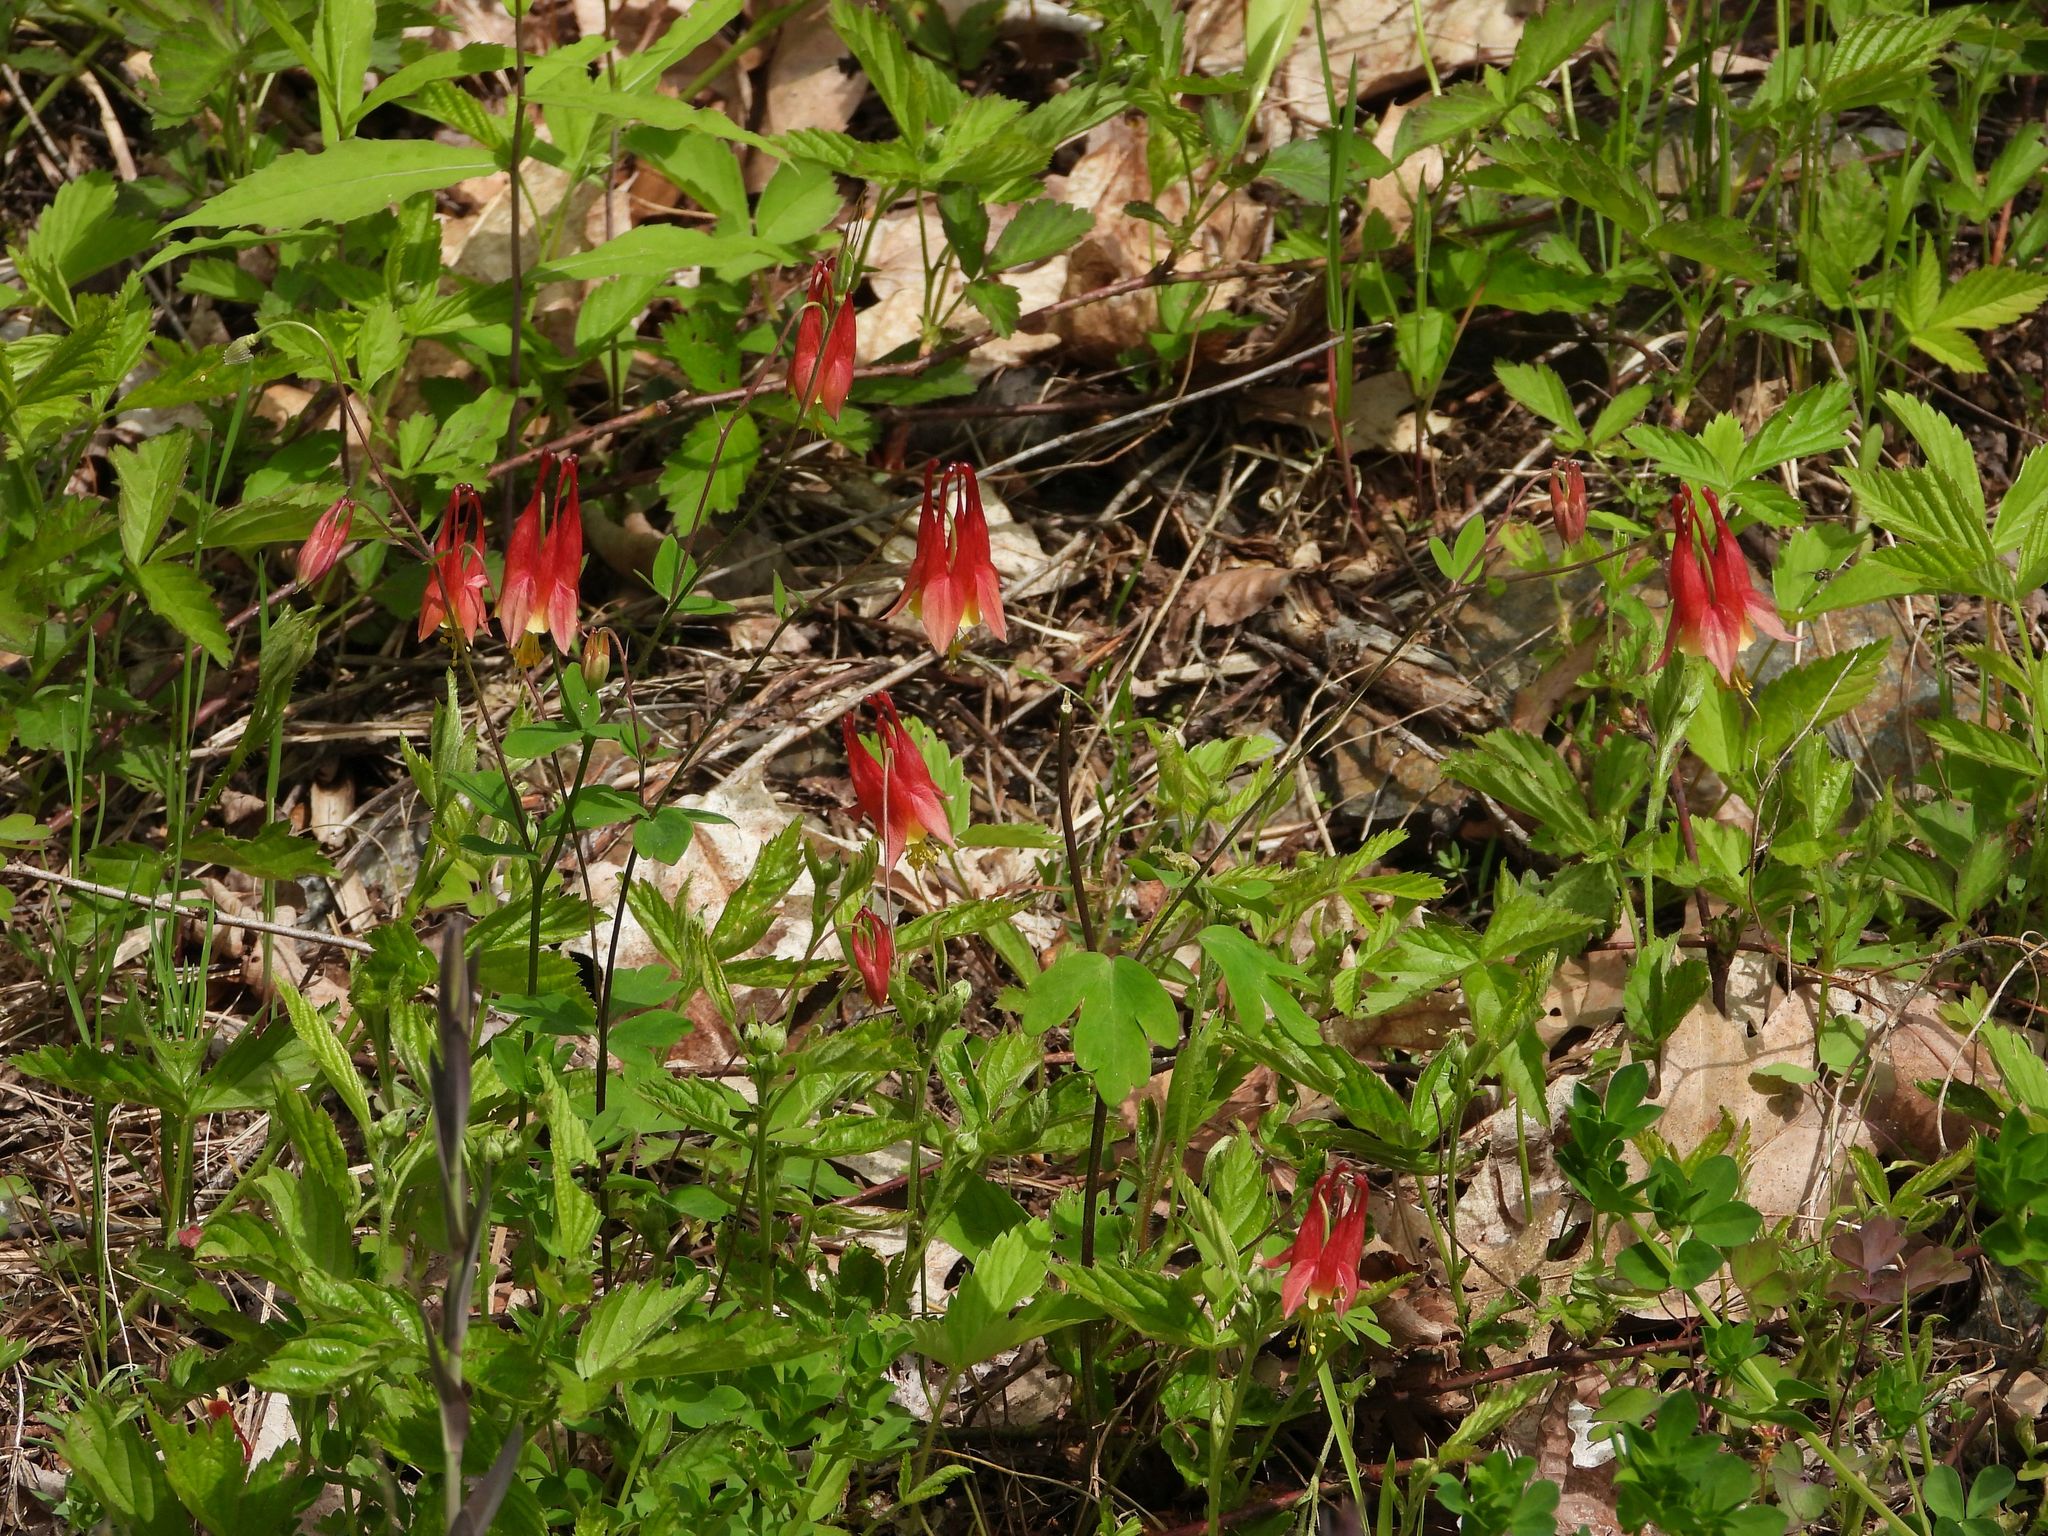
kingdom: Plantae
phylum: Tracheophyta
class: Magnoliopsida
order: Ranunculales
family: Ranunculaceae
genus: Aquilegia
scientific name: Aquilegia canadensis
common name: American columbine
